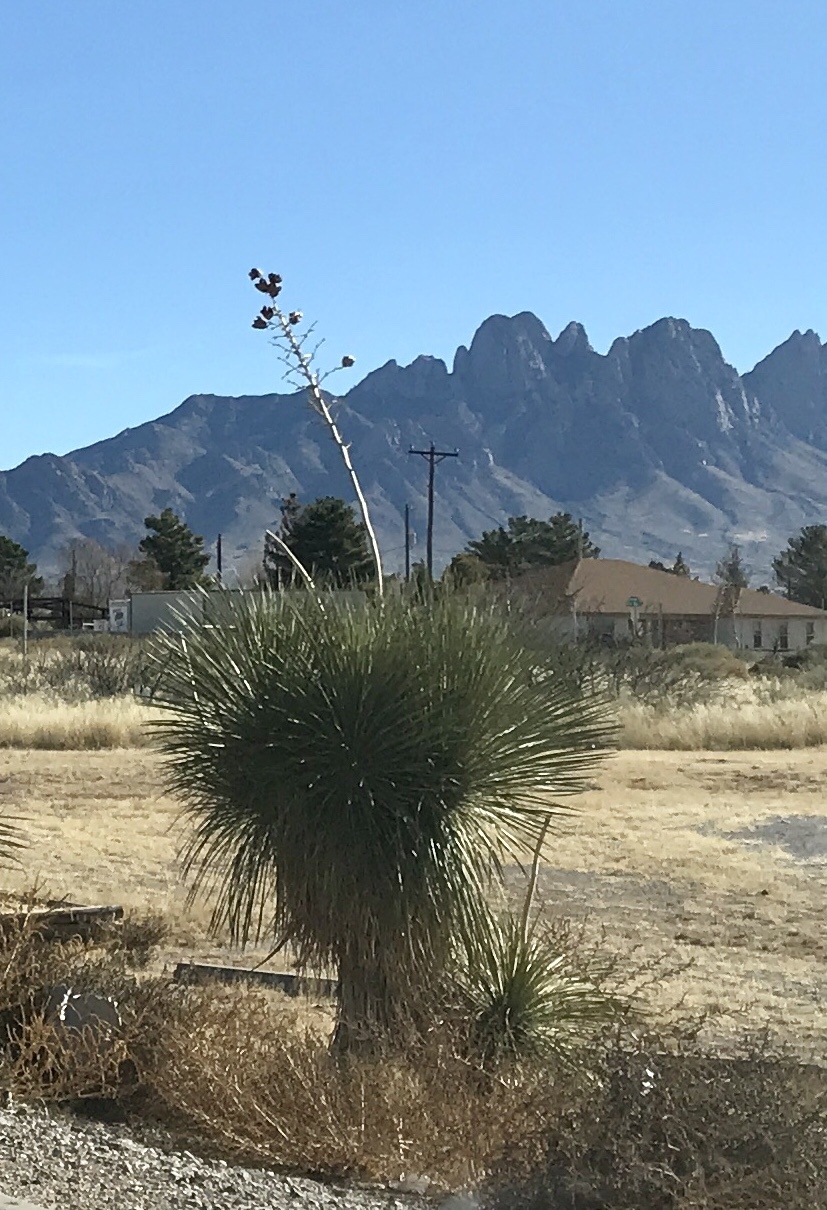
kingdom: Plantae
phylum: Tracheophyta
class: Liliopsida
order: Asparagales
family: Asparagaceae
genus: Yucca
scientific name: Yucca elata
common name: Palmella
